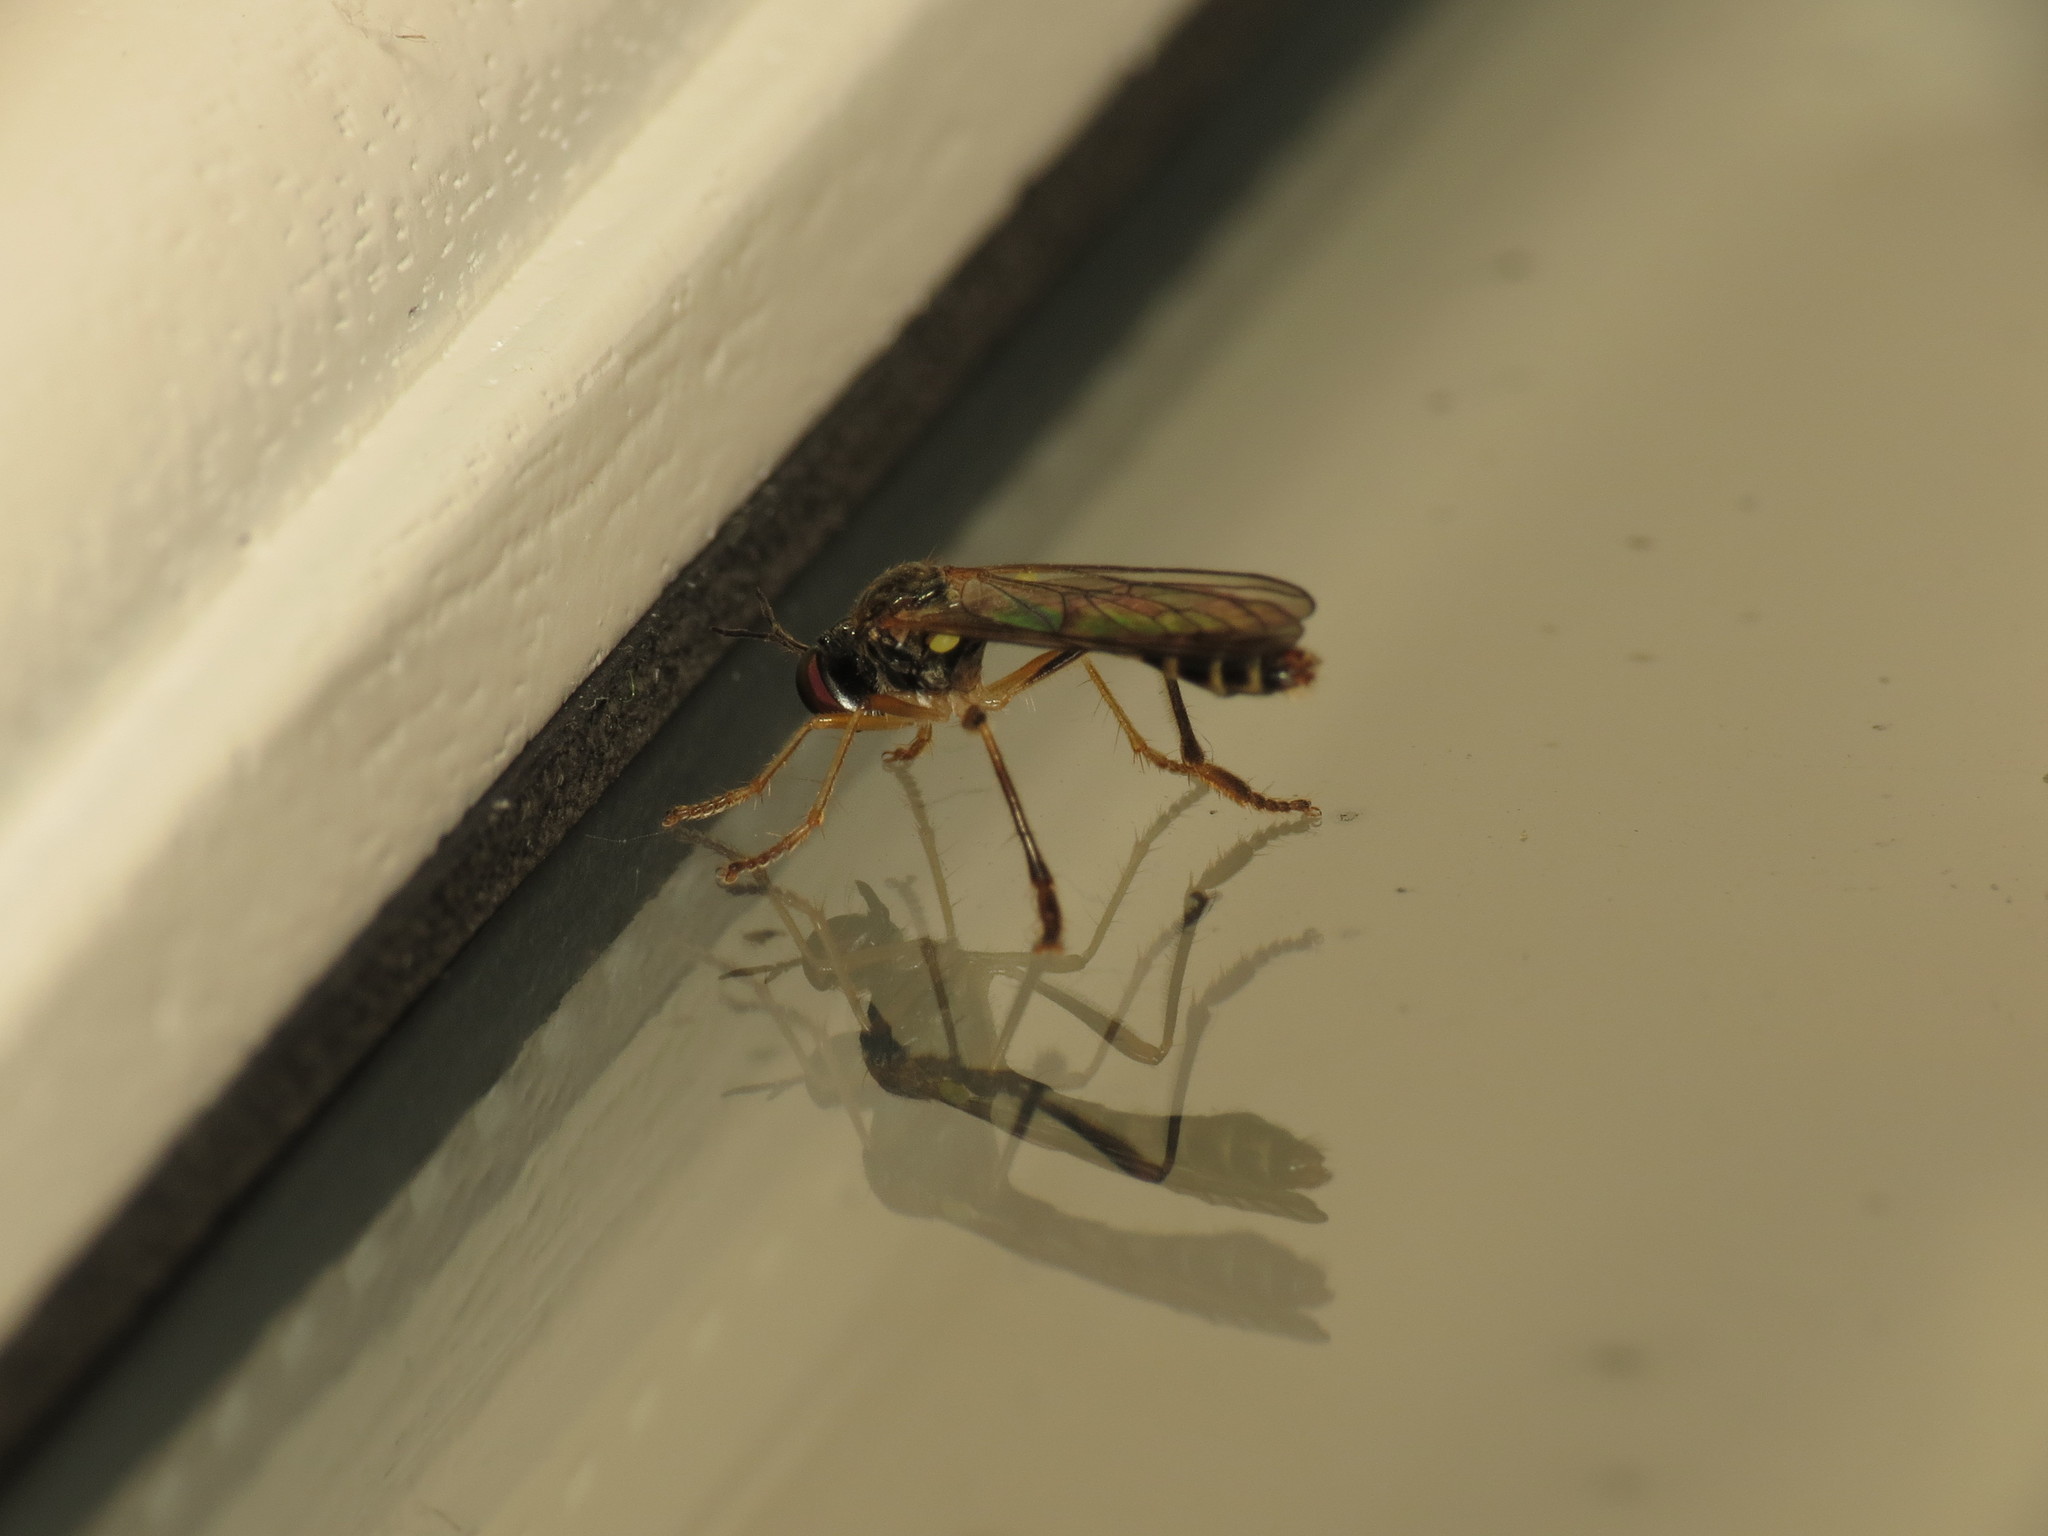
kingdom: Animalia
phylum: Arthropoda
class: Insecta
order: Diptera
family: Asilidae
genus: Dioctria
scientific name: Dioctria linearis
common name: Small yellow-legged robberfly
